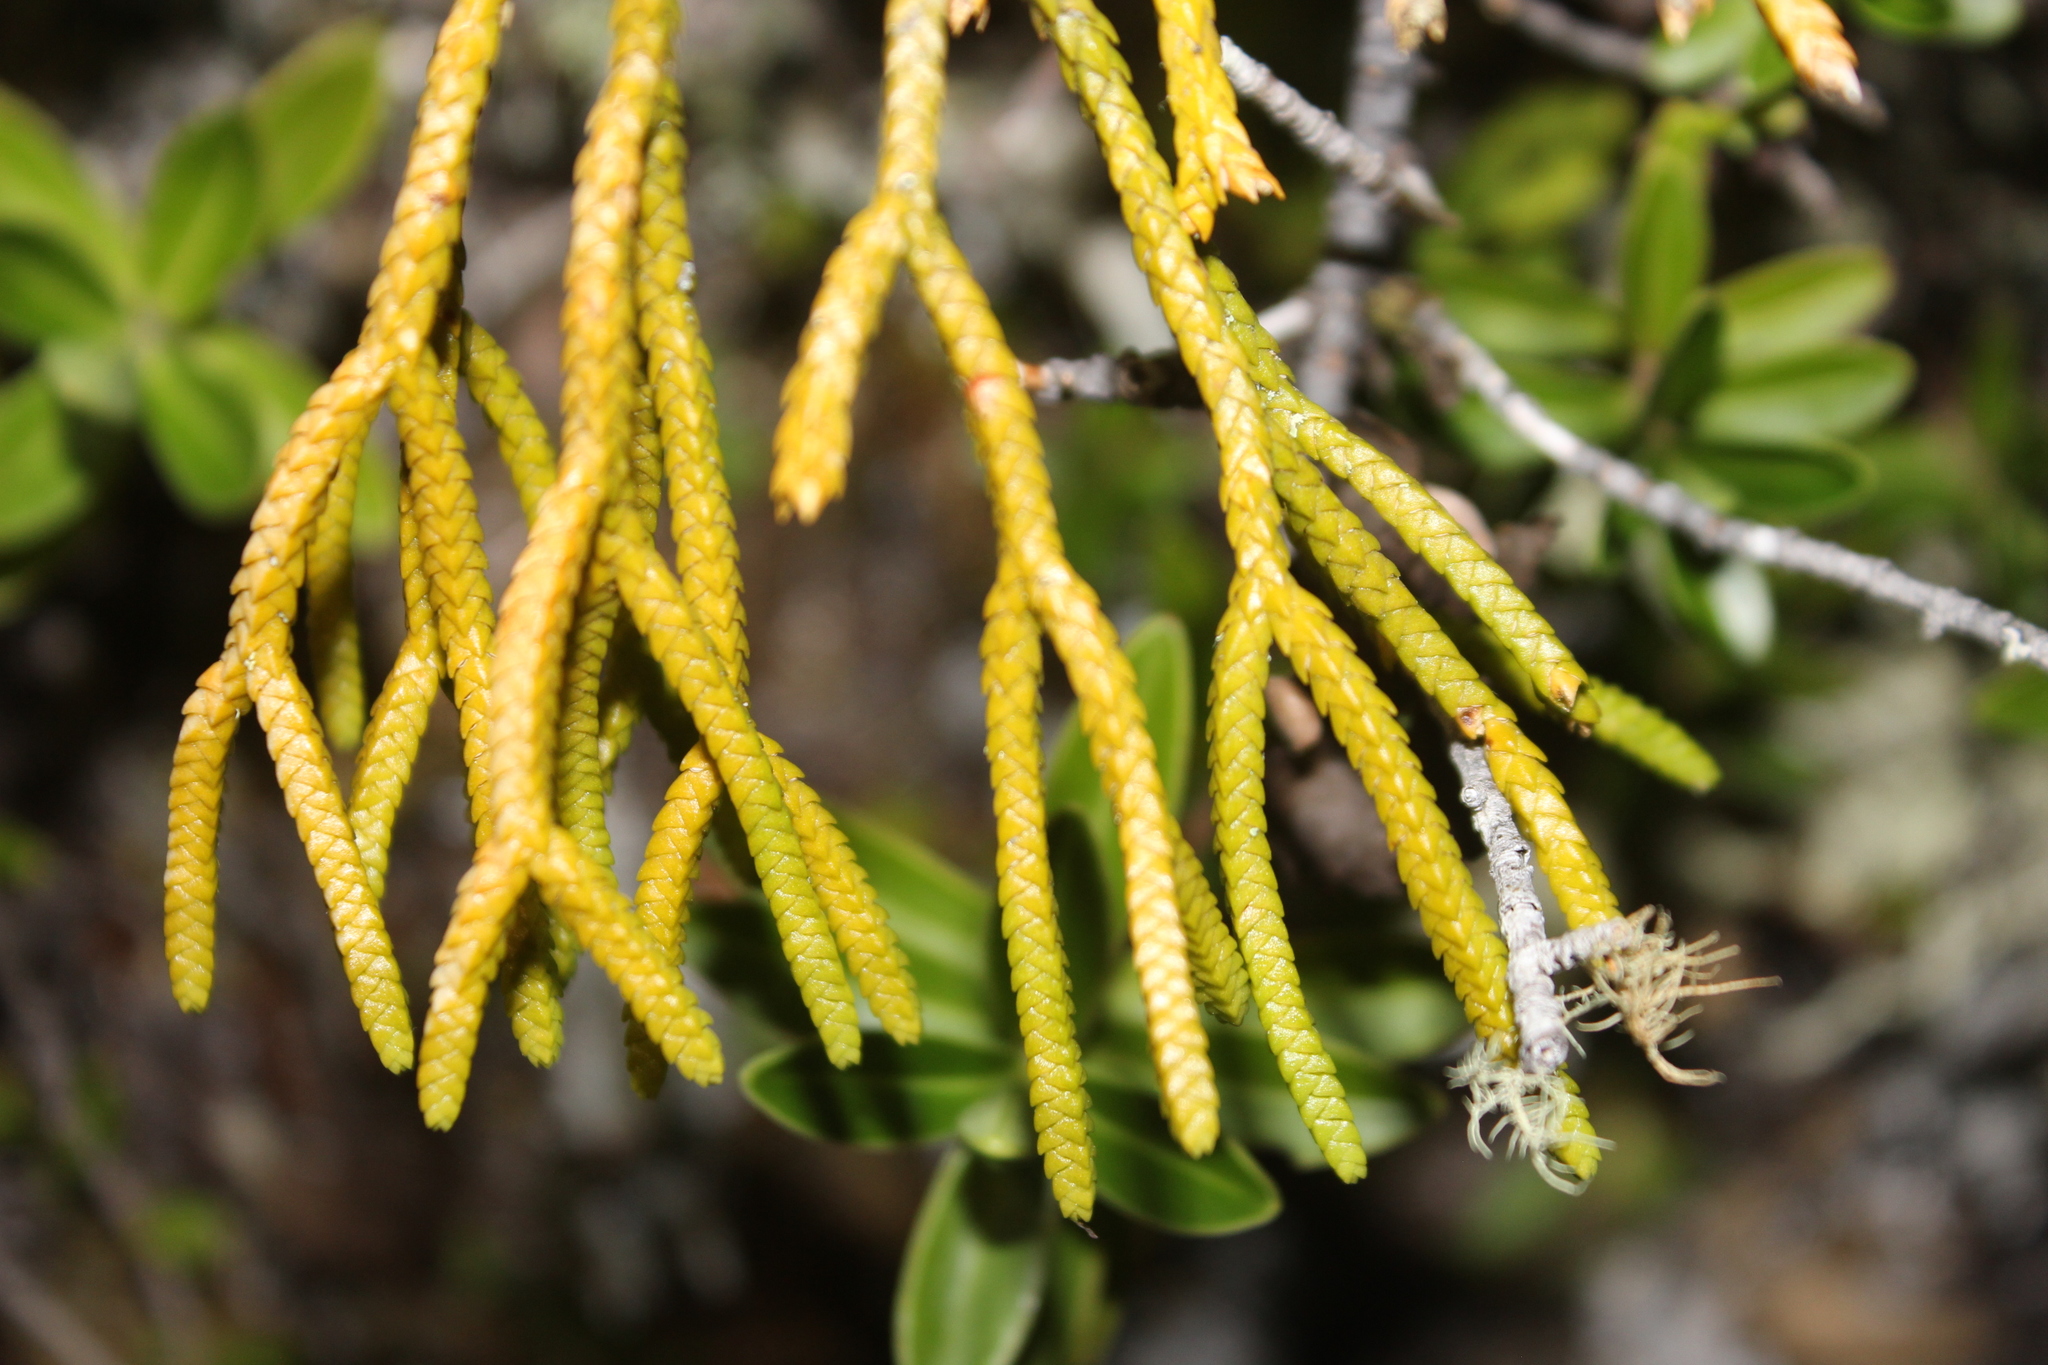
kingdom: Plantae
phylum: Tracheophyta
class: Lycopodiopsida
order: Lycopodiales
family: Lycopodiaceae
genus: Phlegmariurus
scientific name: Phlegmariurus billardierei
